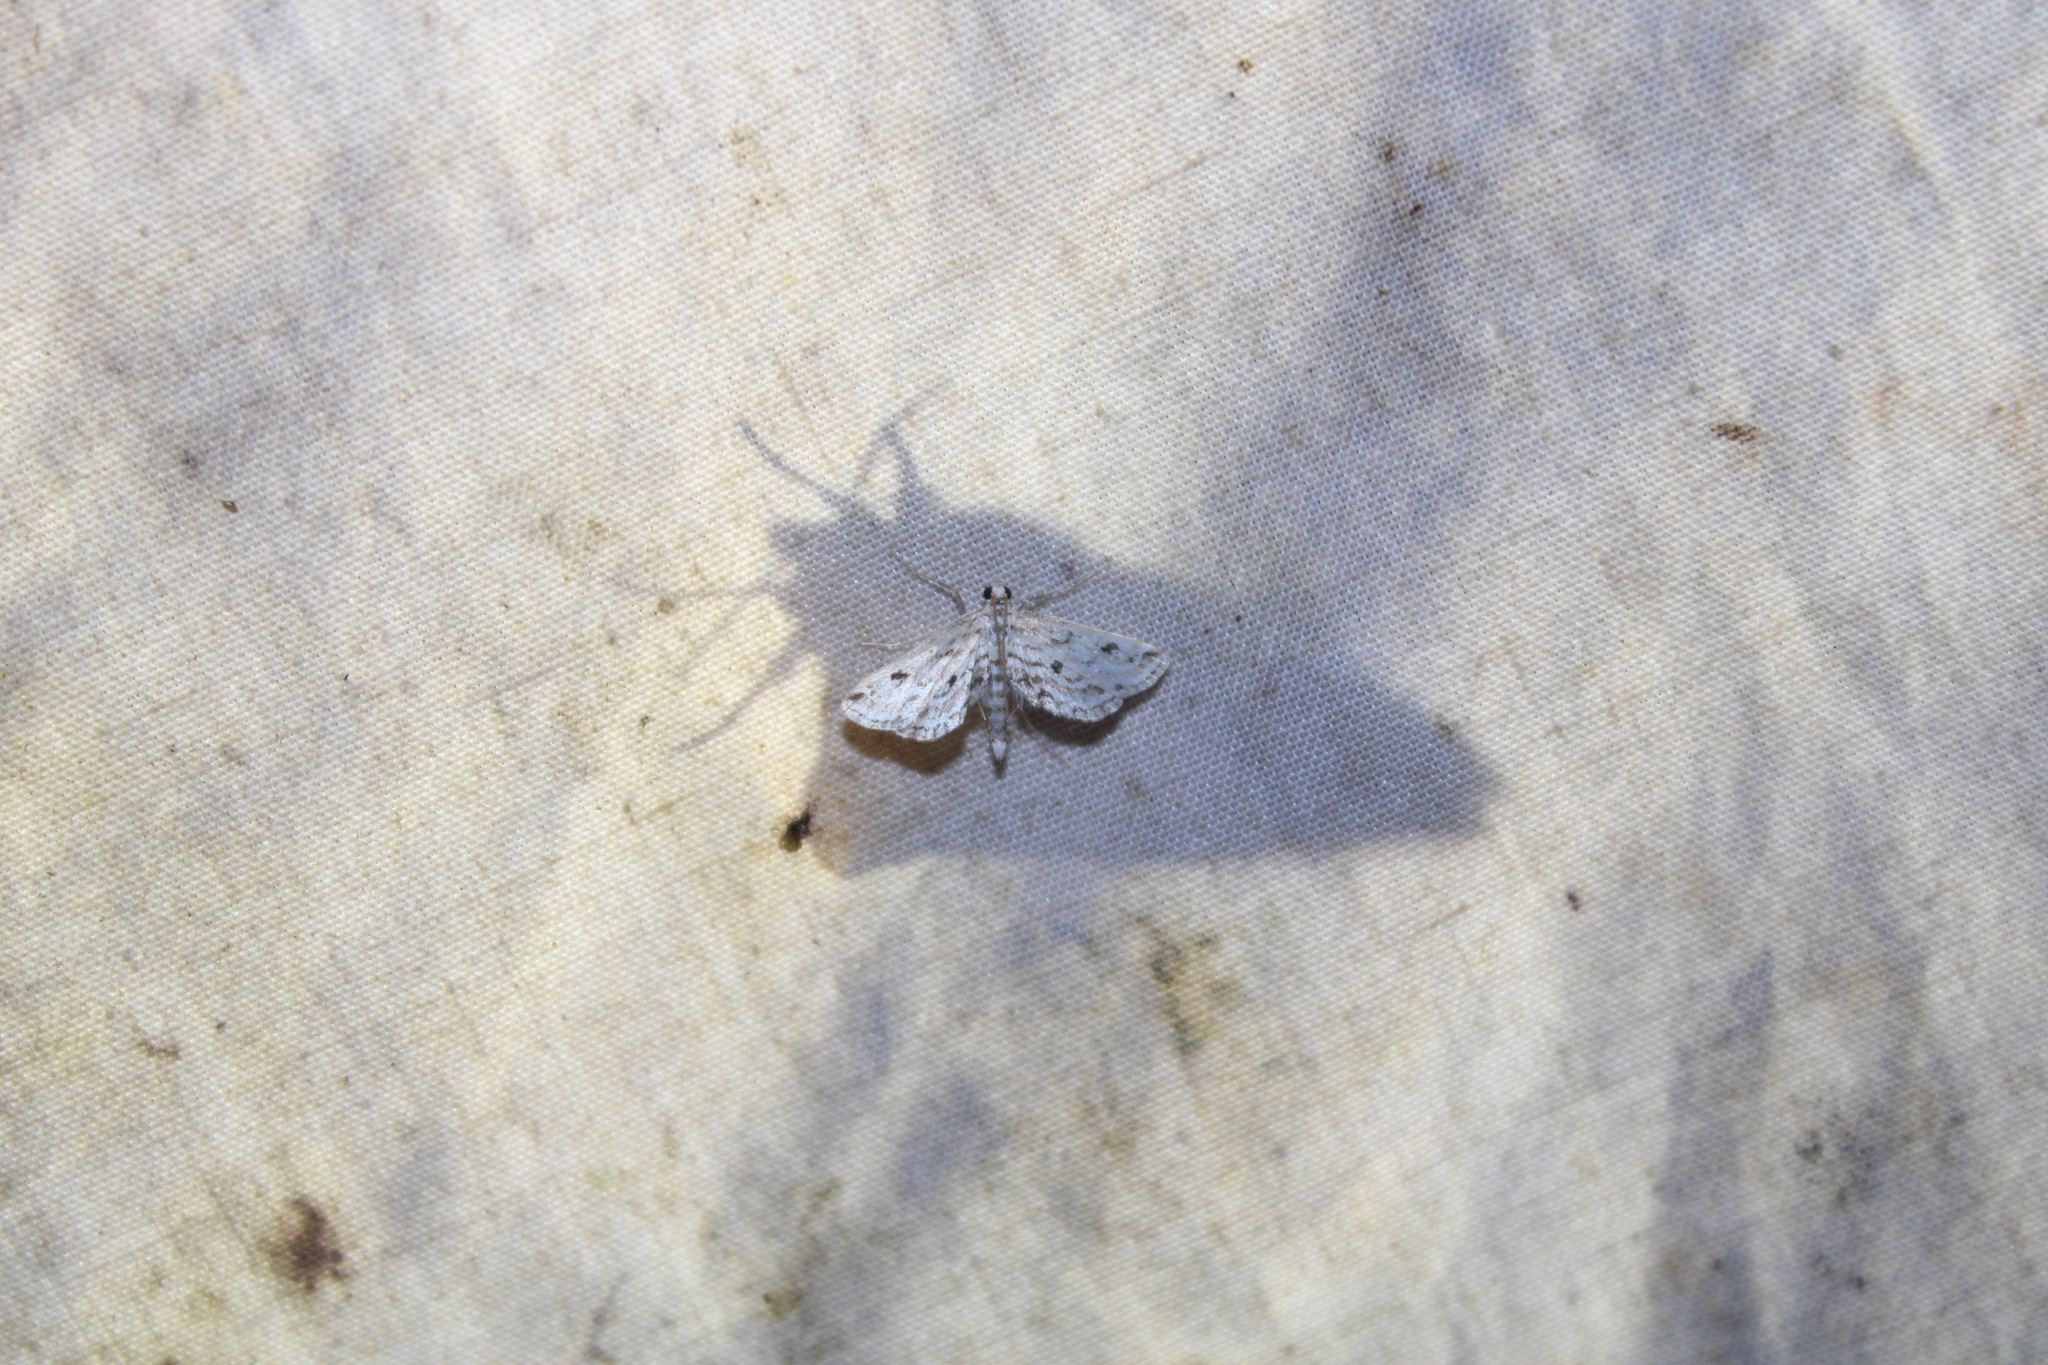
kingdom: Animalia
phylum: Arthropoda
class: Insecta
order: Lepidoptera
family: Crambidae
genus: Parapoynx
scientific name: Parapoynx allionealis
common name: Bladderwort casemaker
